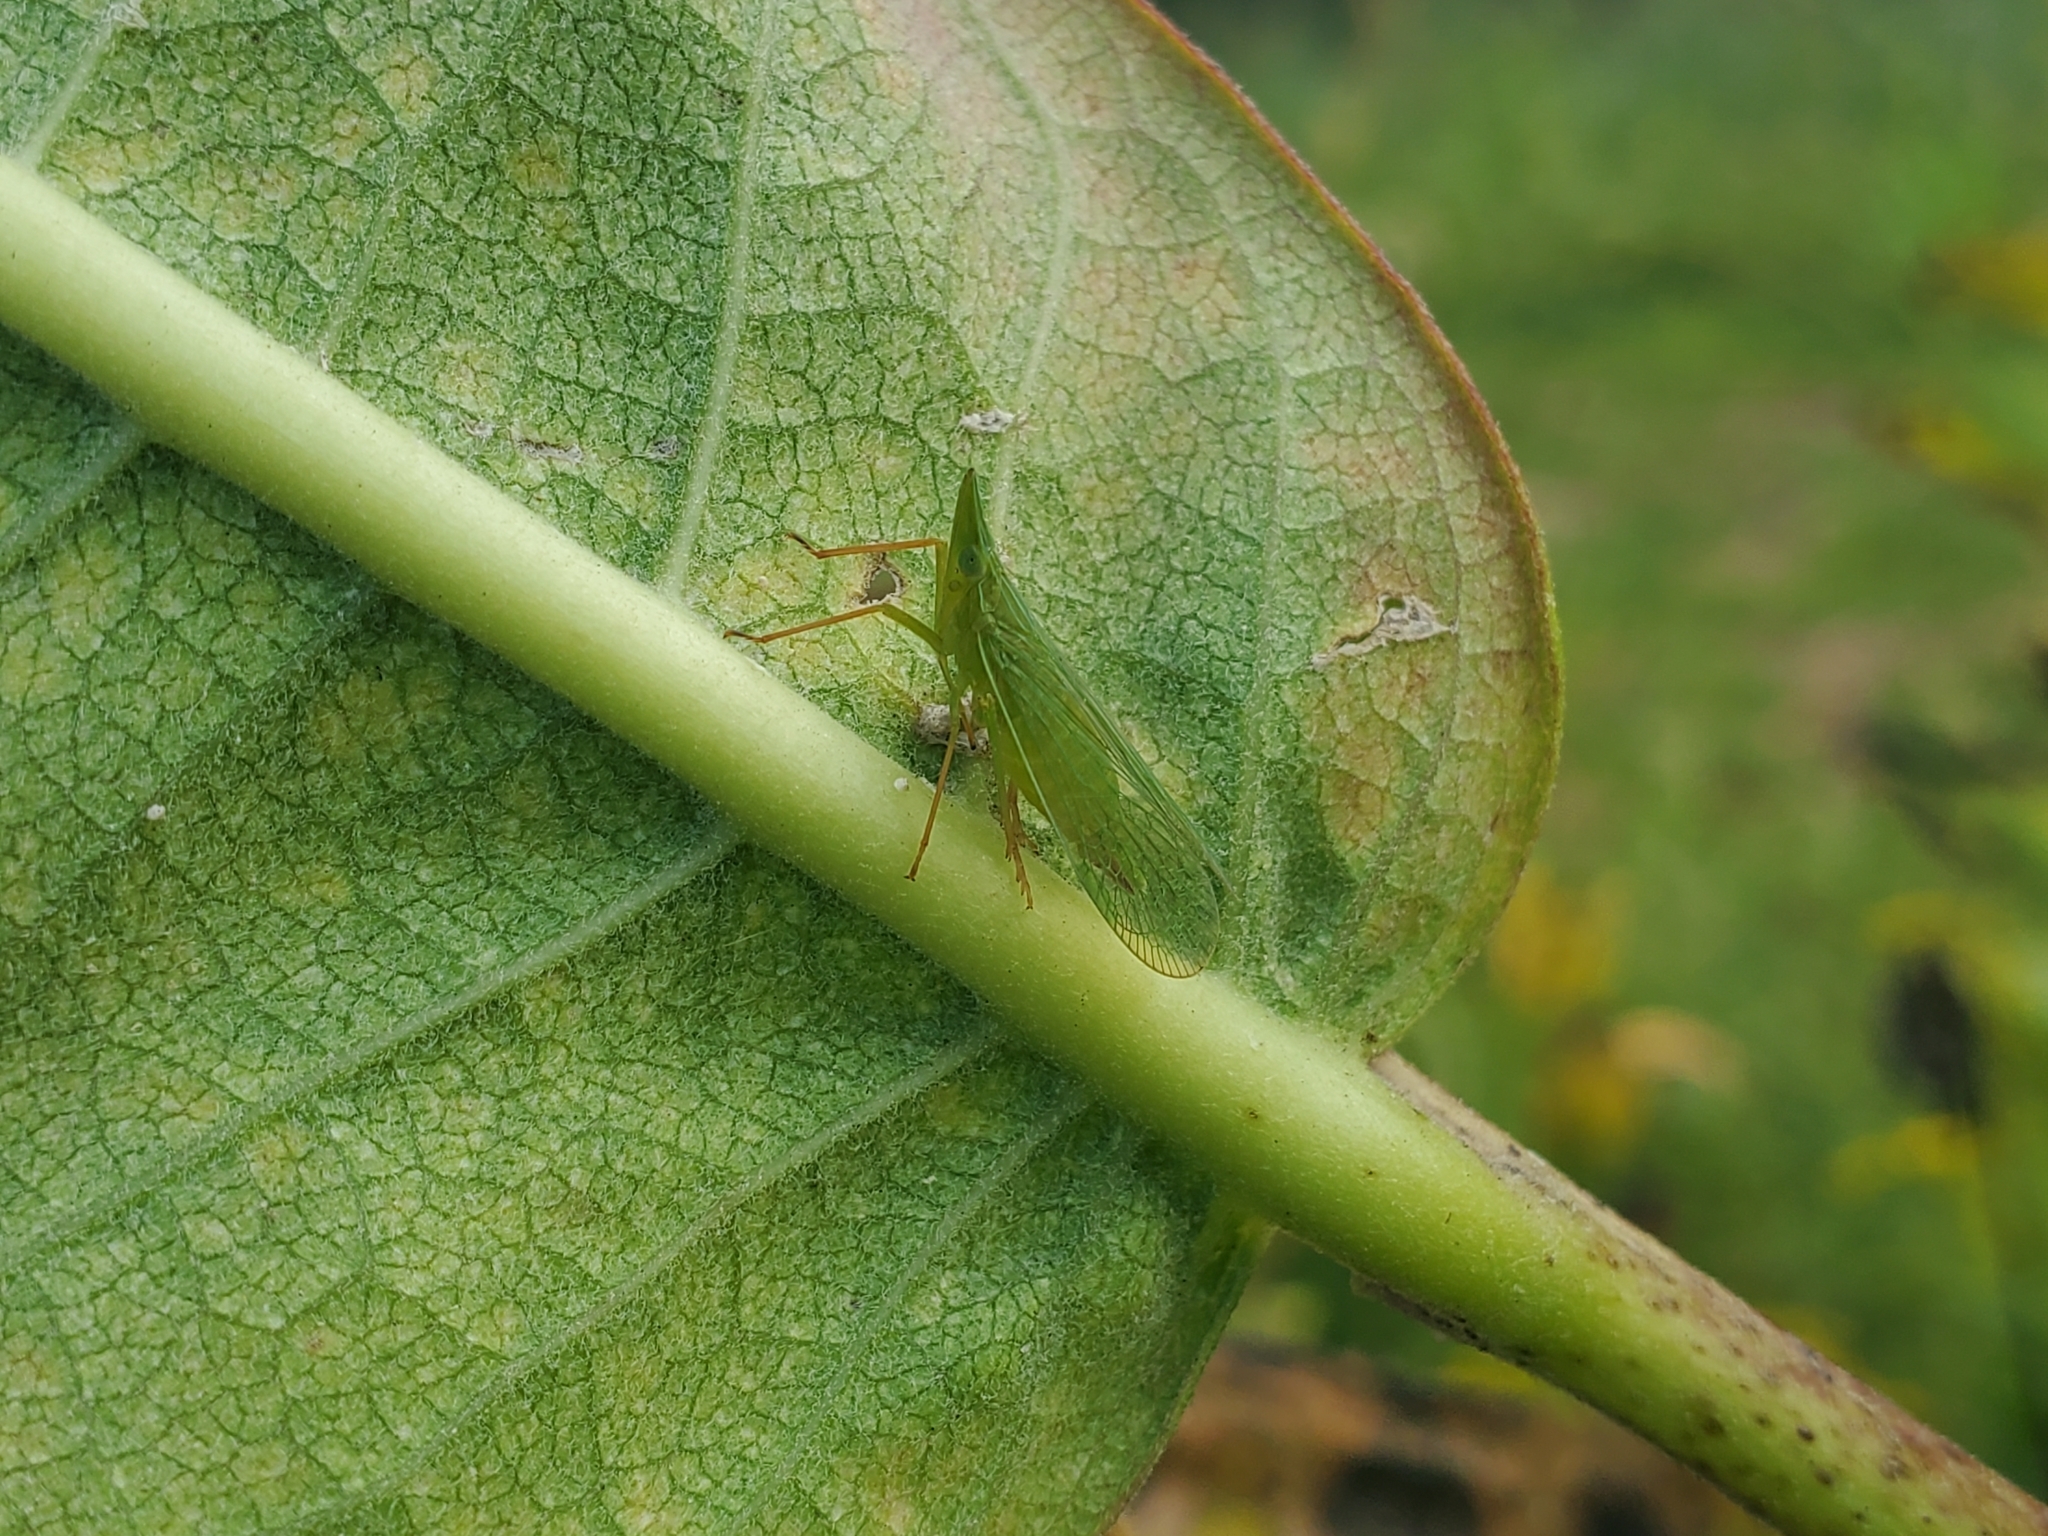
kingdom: Animalia
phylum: Arthropoda
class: Insecta
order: Hemiptera
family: Dictyopharidae
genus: Rhynchomitra
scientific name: Rhynchomitra microrhina
